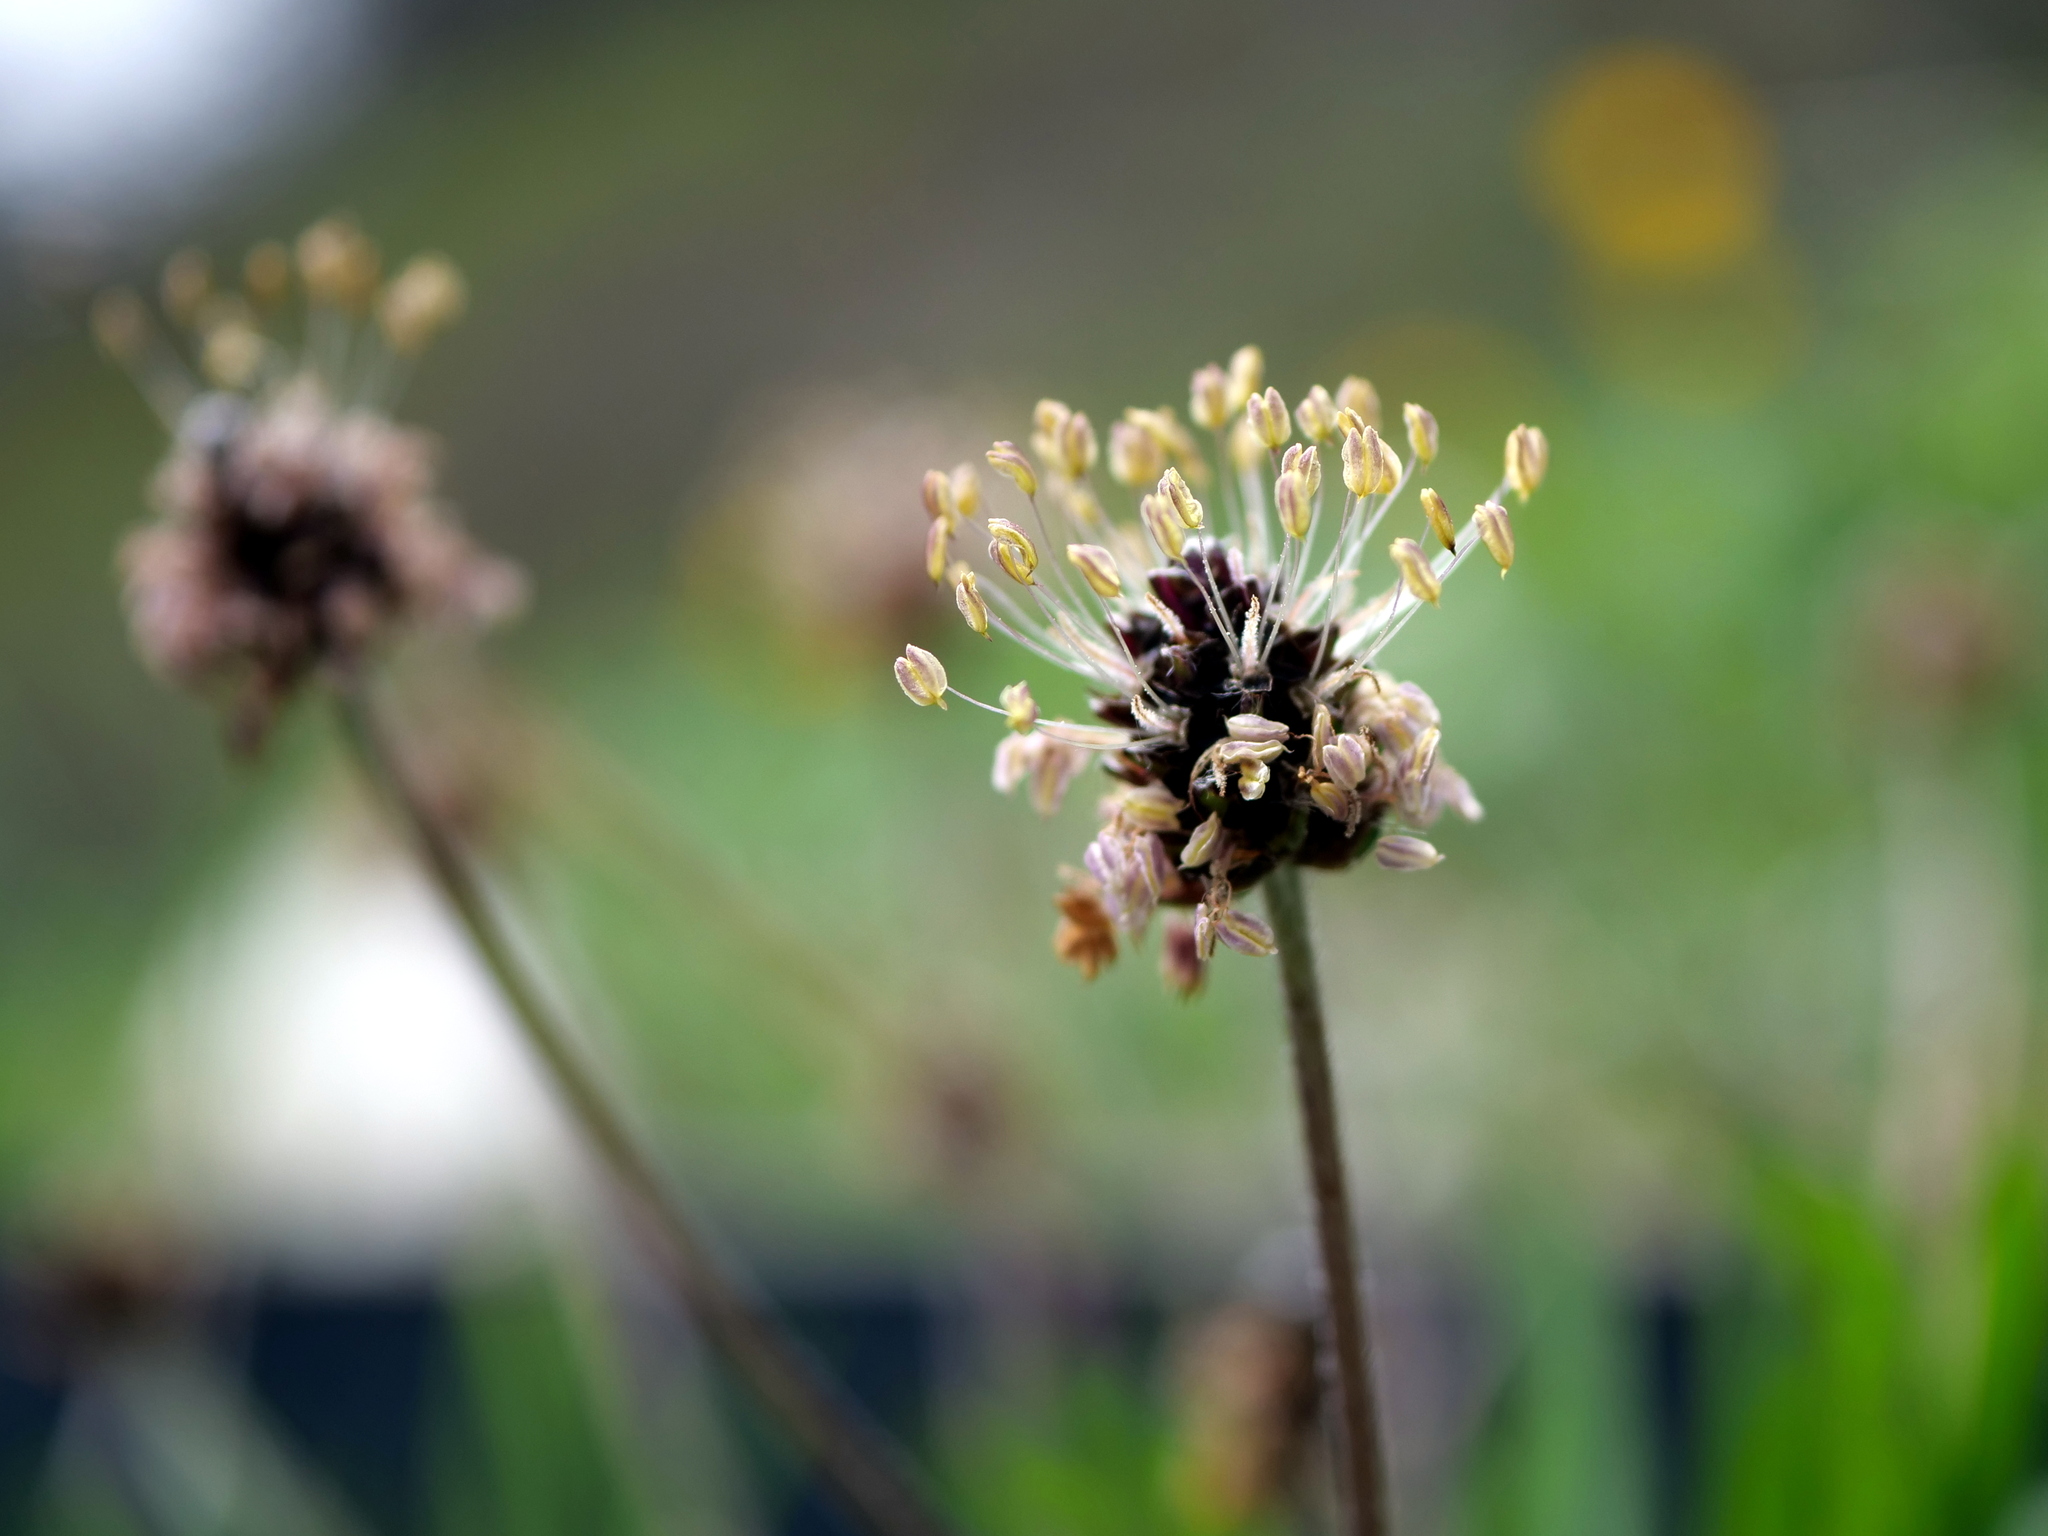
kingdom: Plantae
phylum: Tracheophyta
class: Magnoliopsida
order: Lamiales
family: Plantaginaceae
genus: Plantago
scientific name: Plantago atrata
